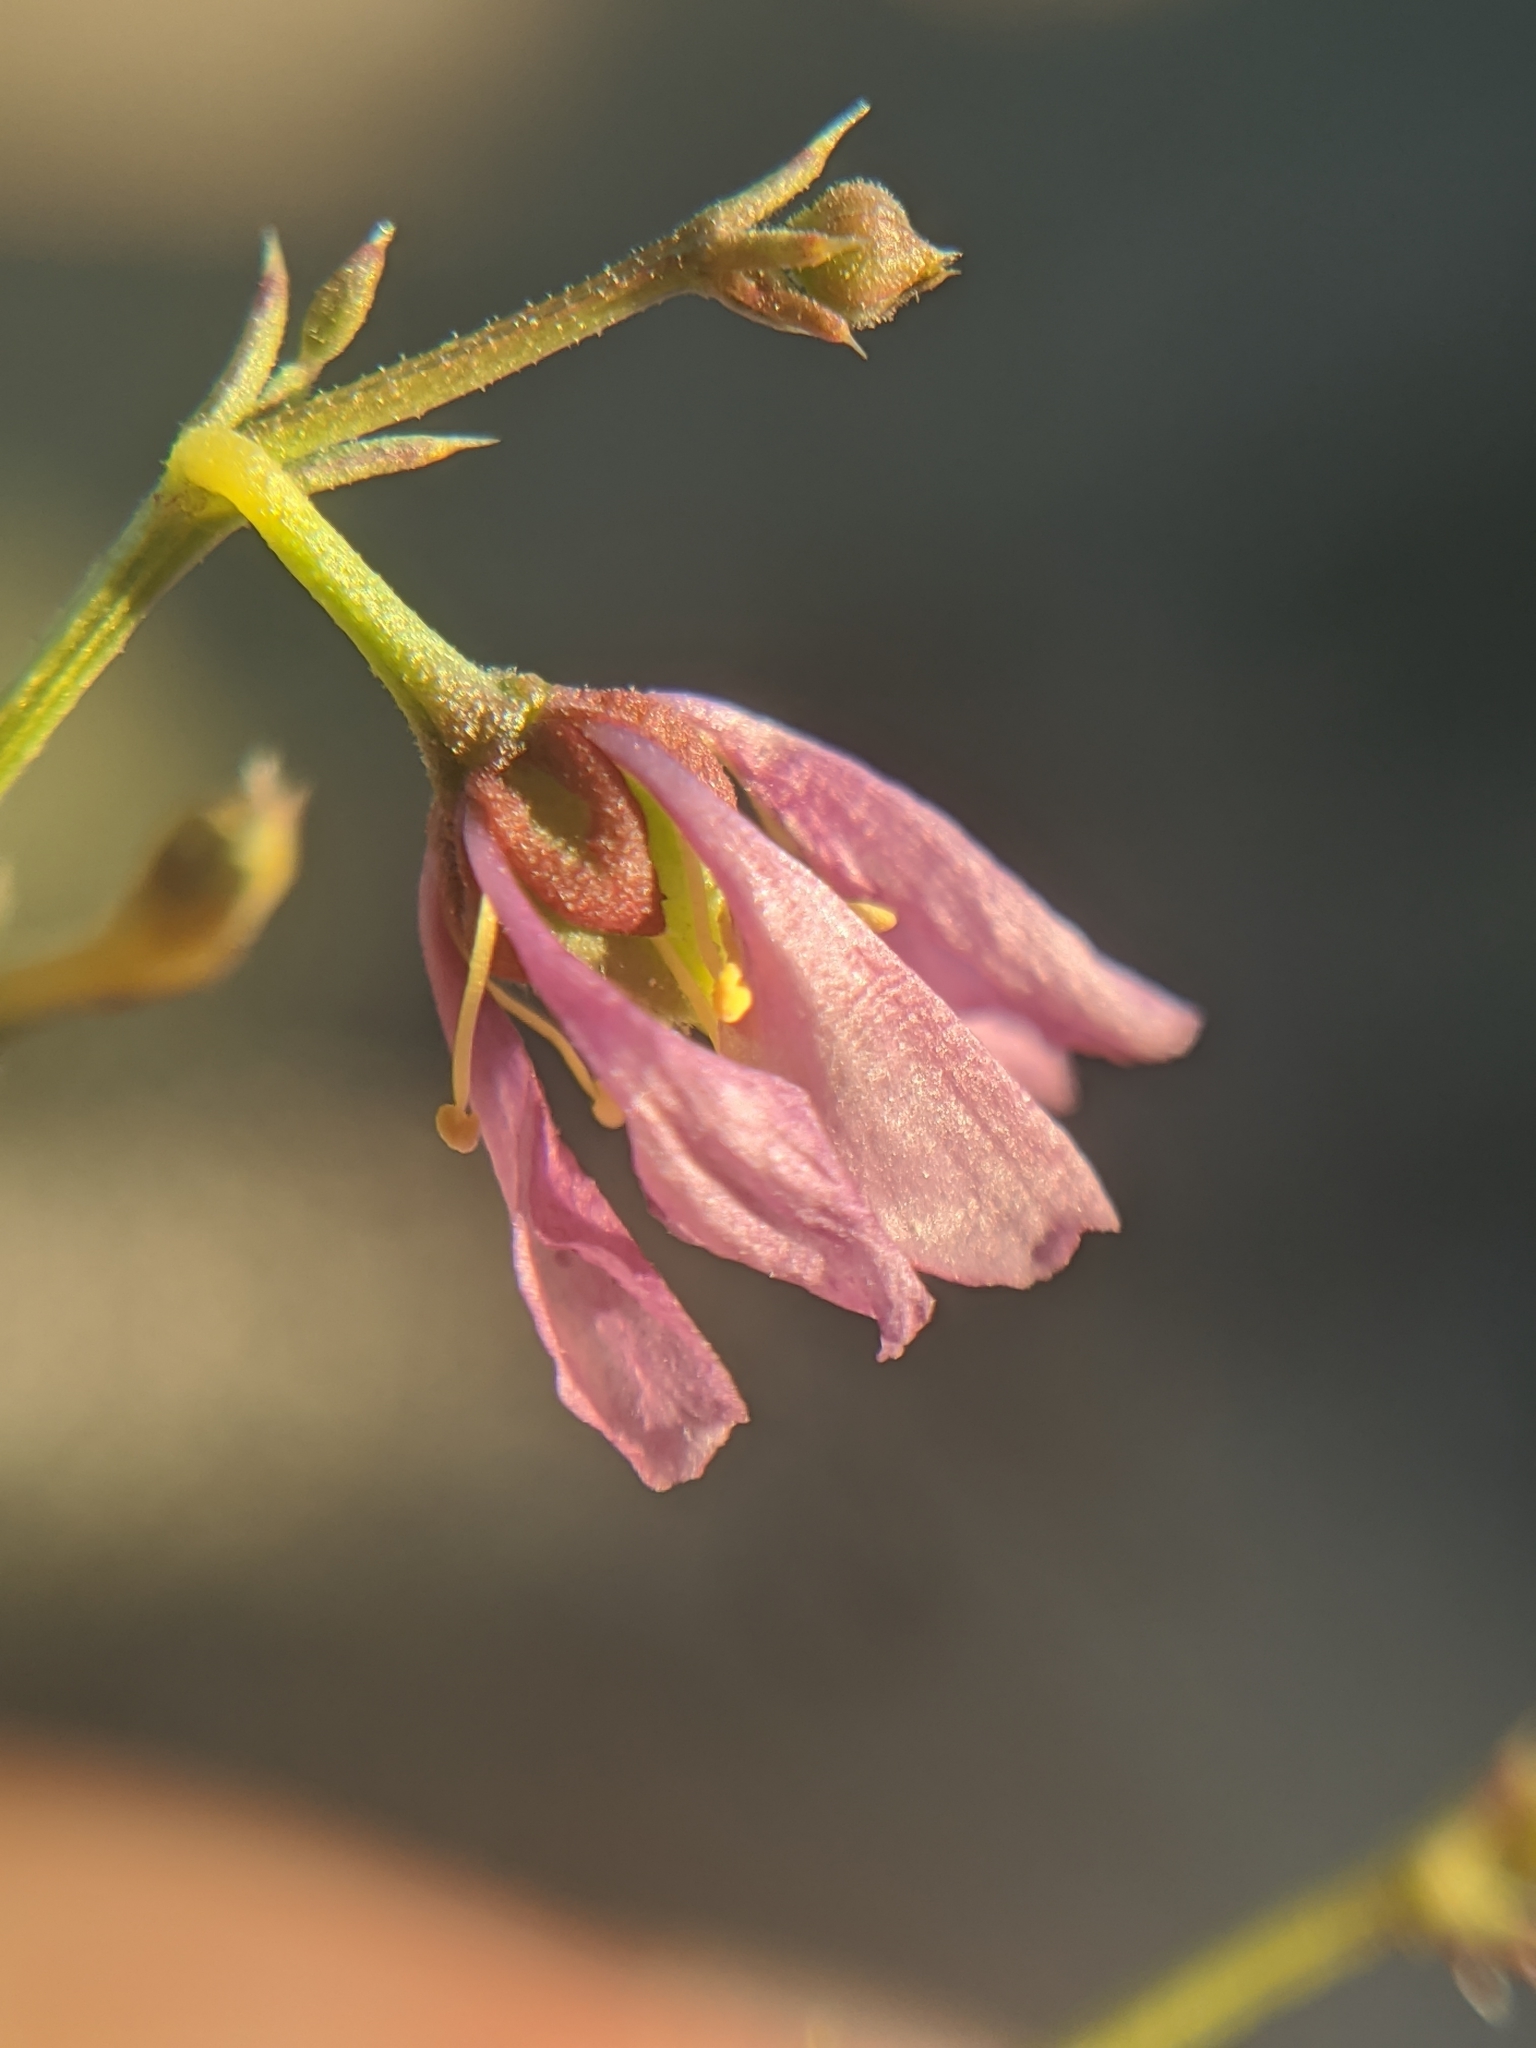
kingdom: Plantae
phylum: Tracheophyta
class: Magnoliopsida
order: Zygophyllales
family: Zygophyllaceae
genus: Fagonia
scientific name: Fagonia laevis
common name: California fagonbush
